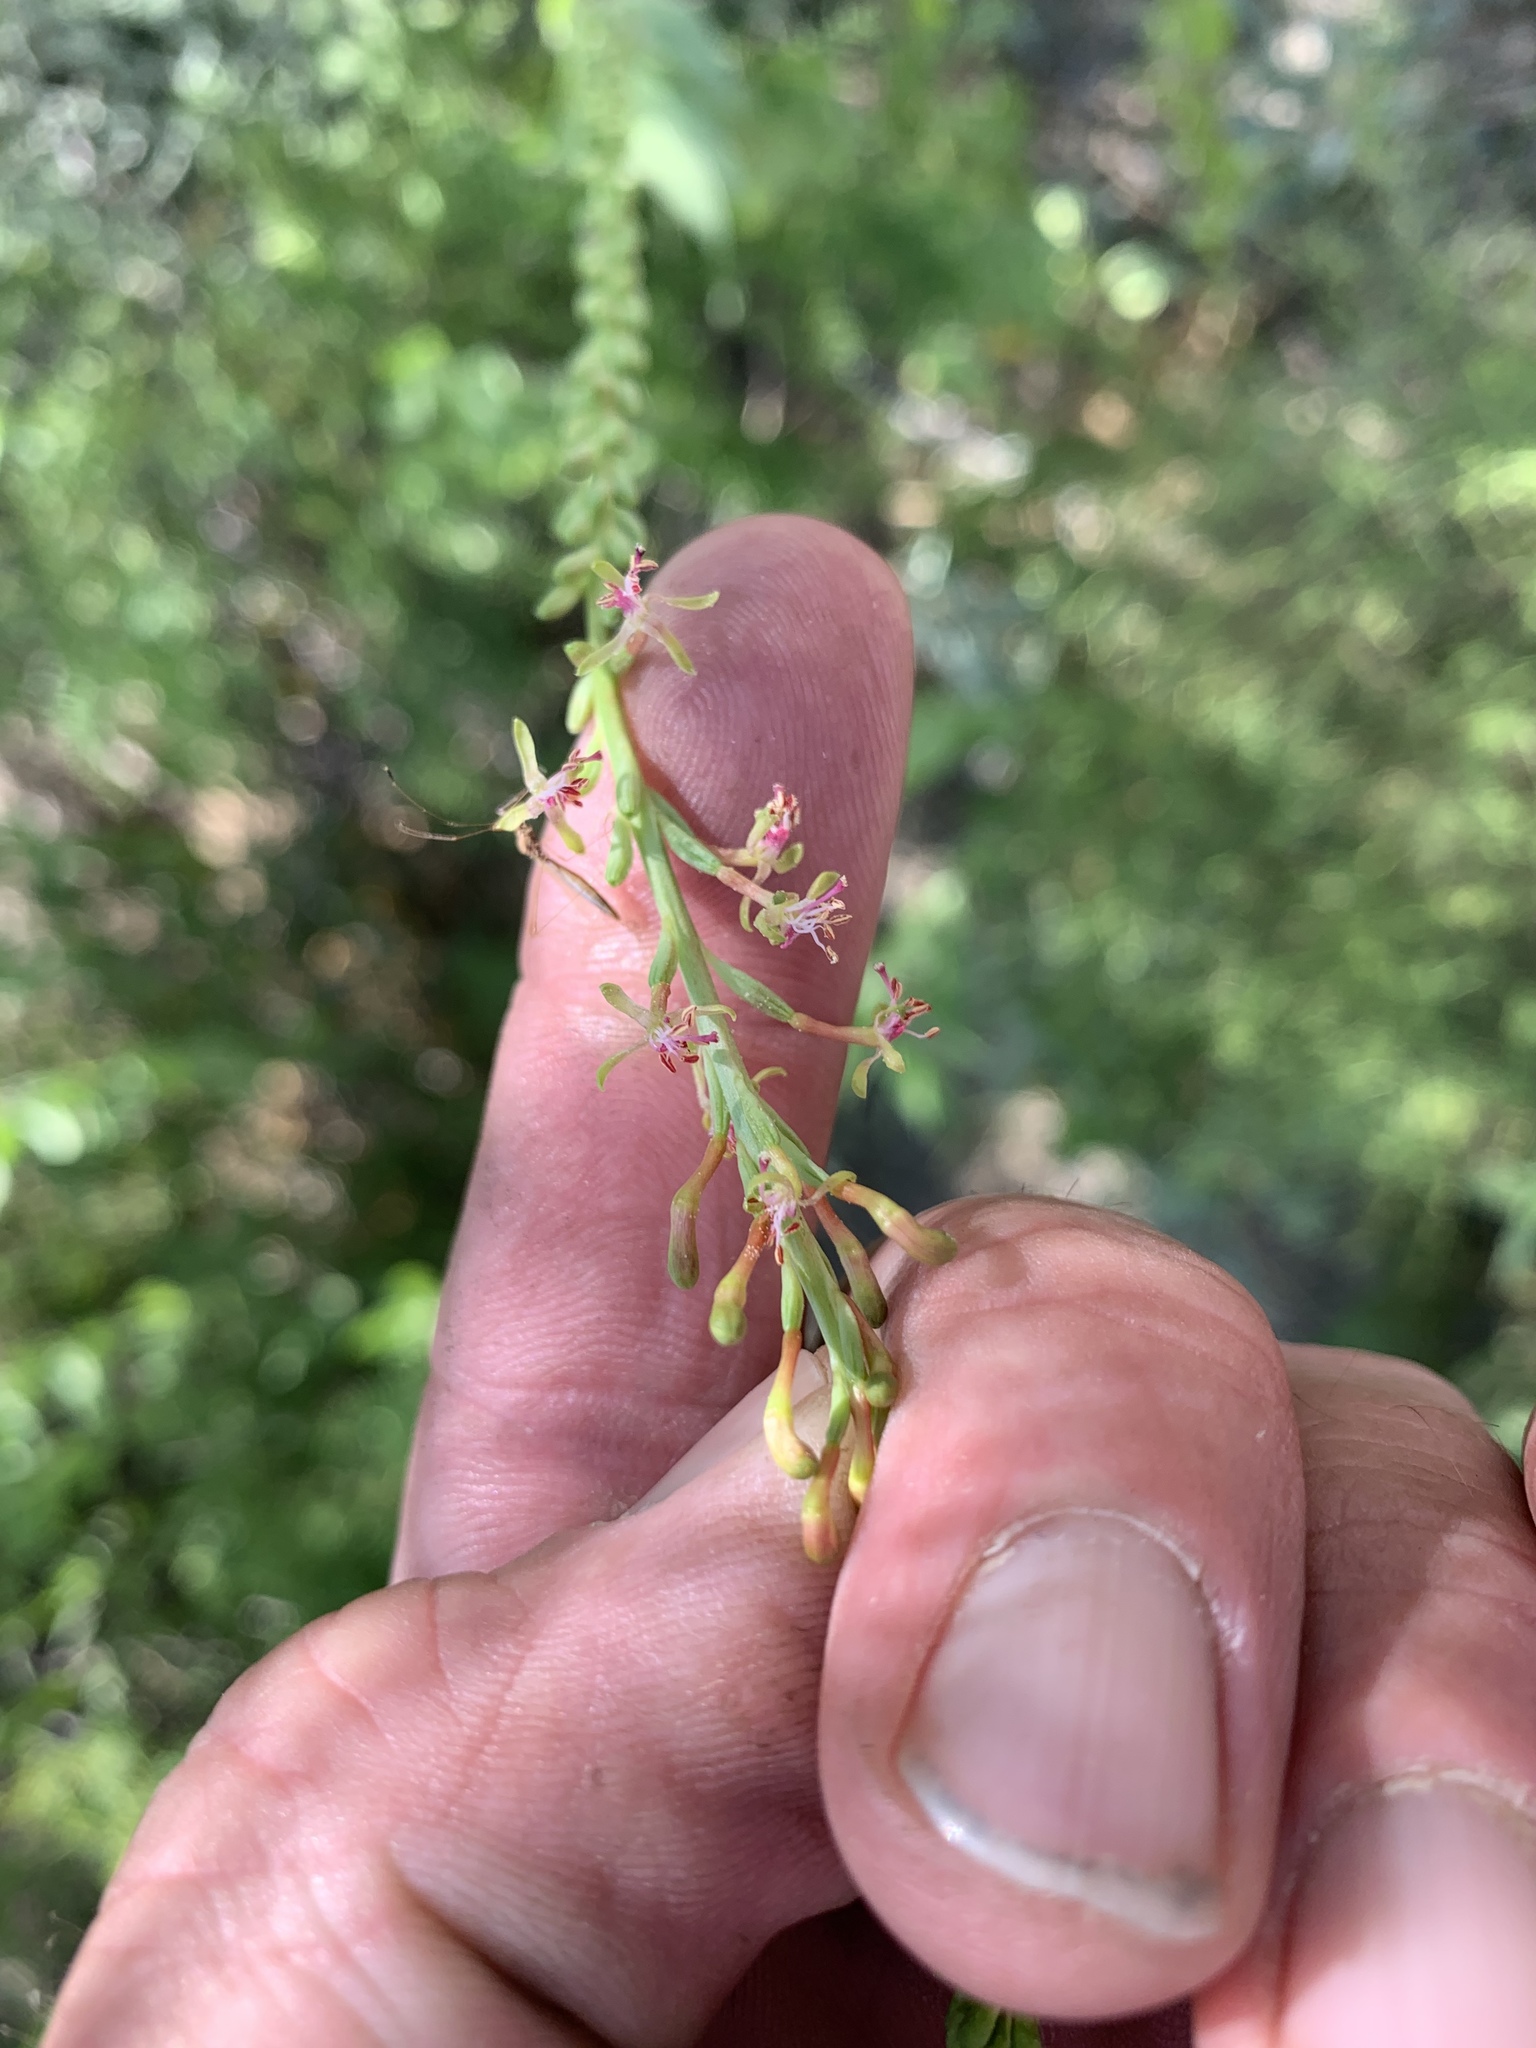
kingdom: Plantae
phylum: Tracheophyta
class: Magnoliopsida
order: Myrtales
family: Onagraceae
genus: Oenothera
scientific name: Oenothera curtiflora
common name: Velvetweed
